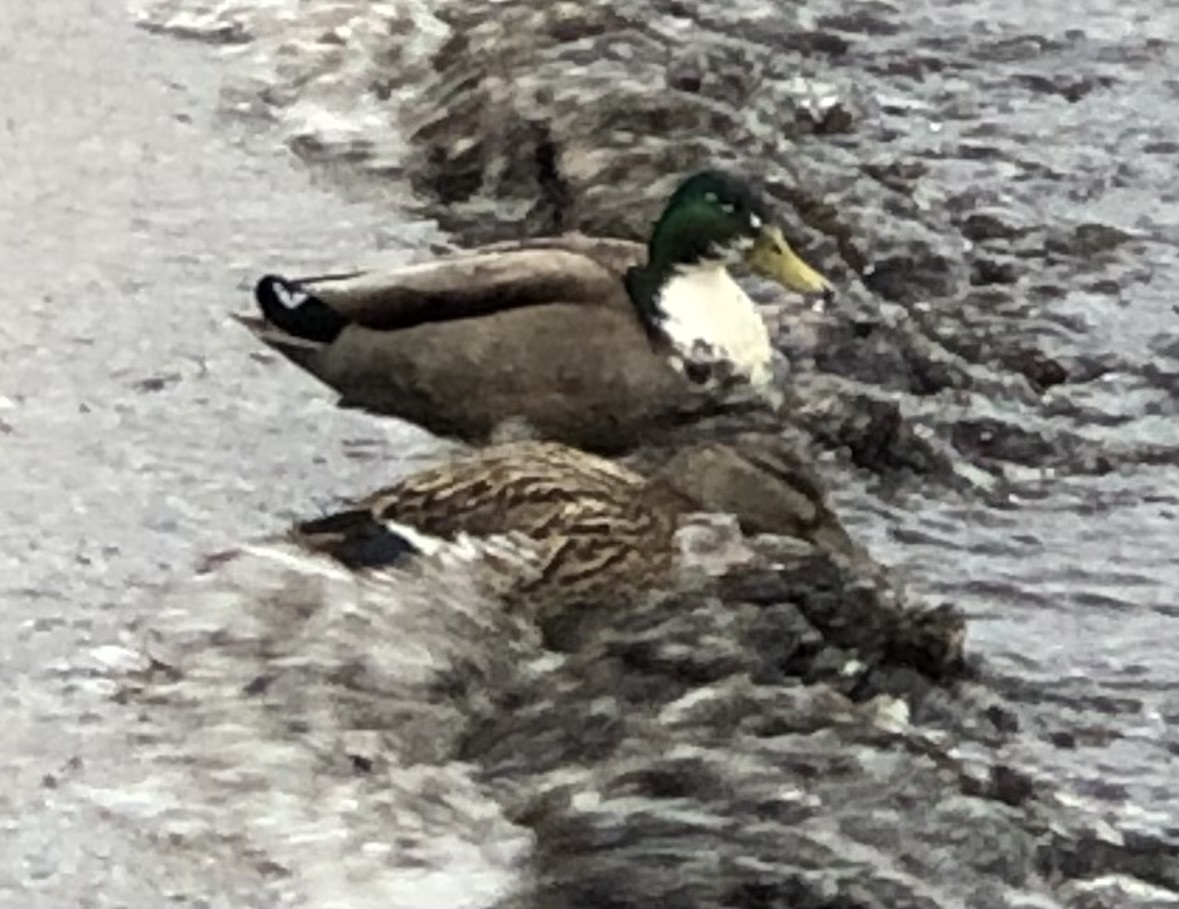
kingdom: Animalia
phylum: Chordata
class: Aves
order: Anseriformes
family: Anatidae
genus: Anas
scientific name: Anas platyrhynchos
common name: Mallard
